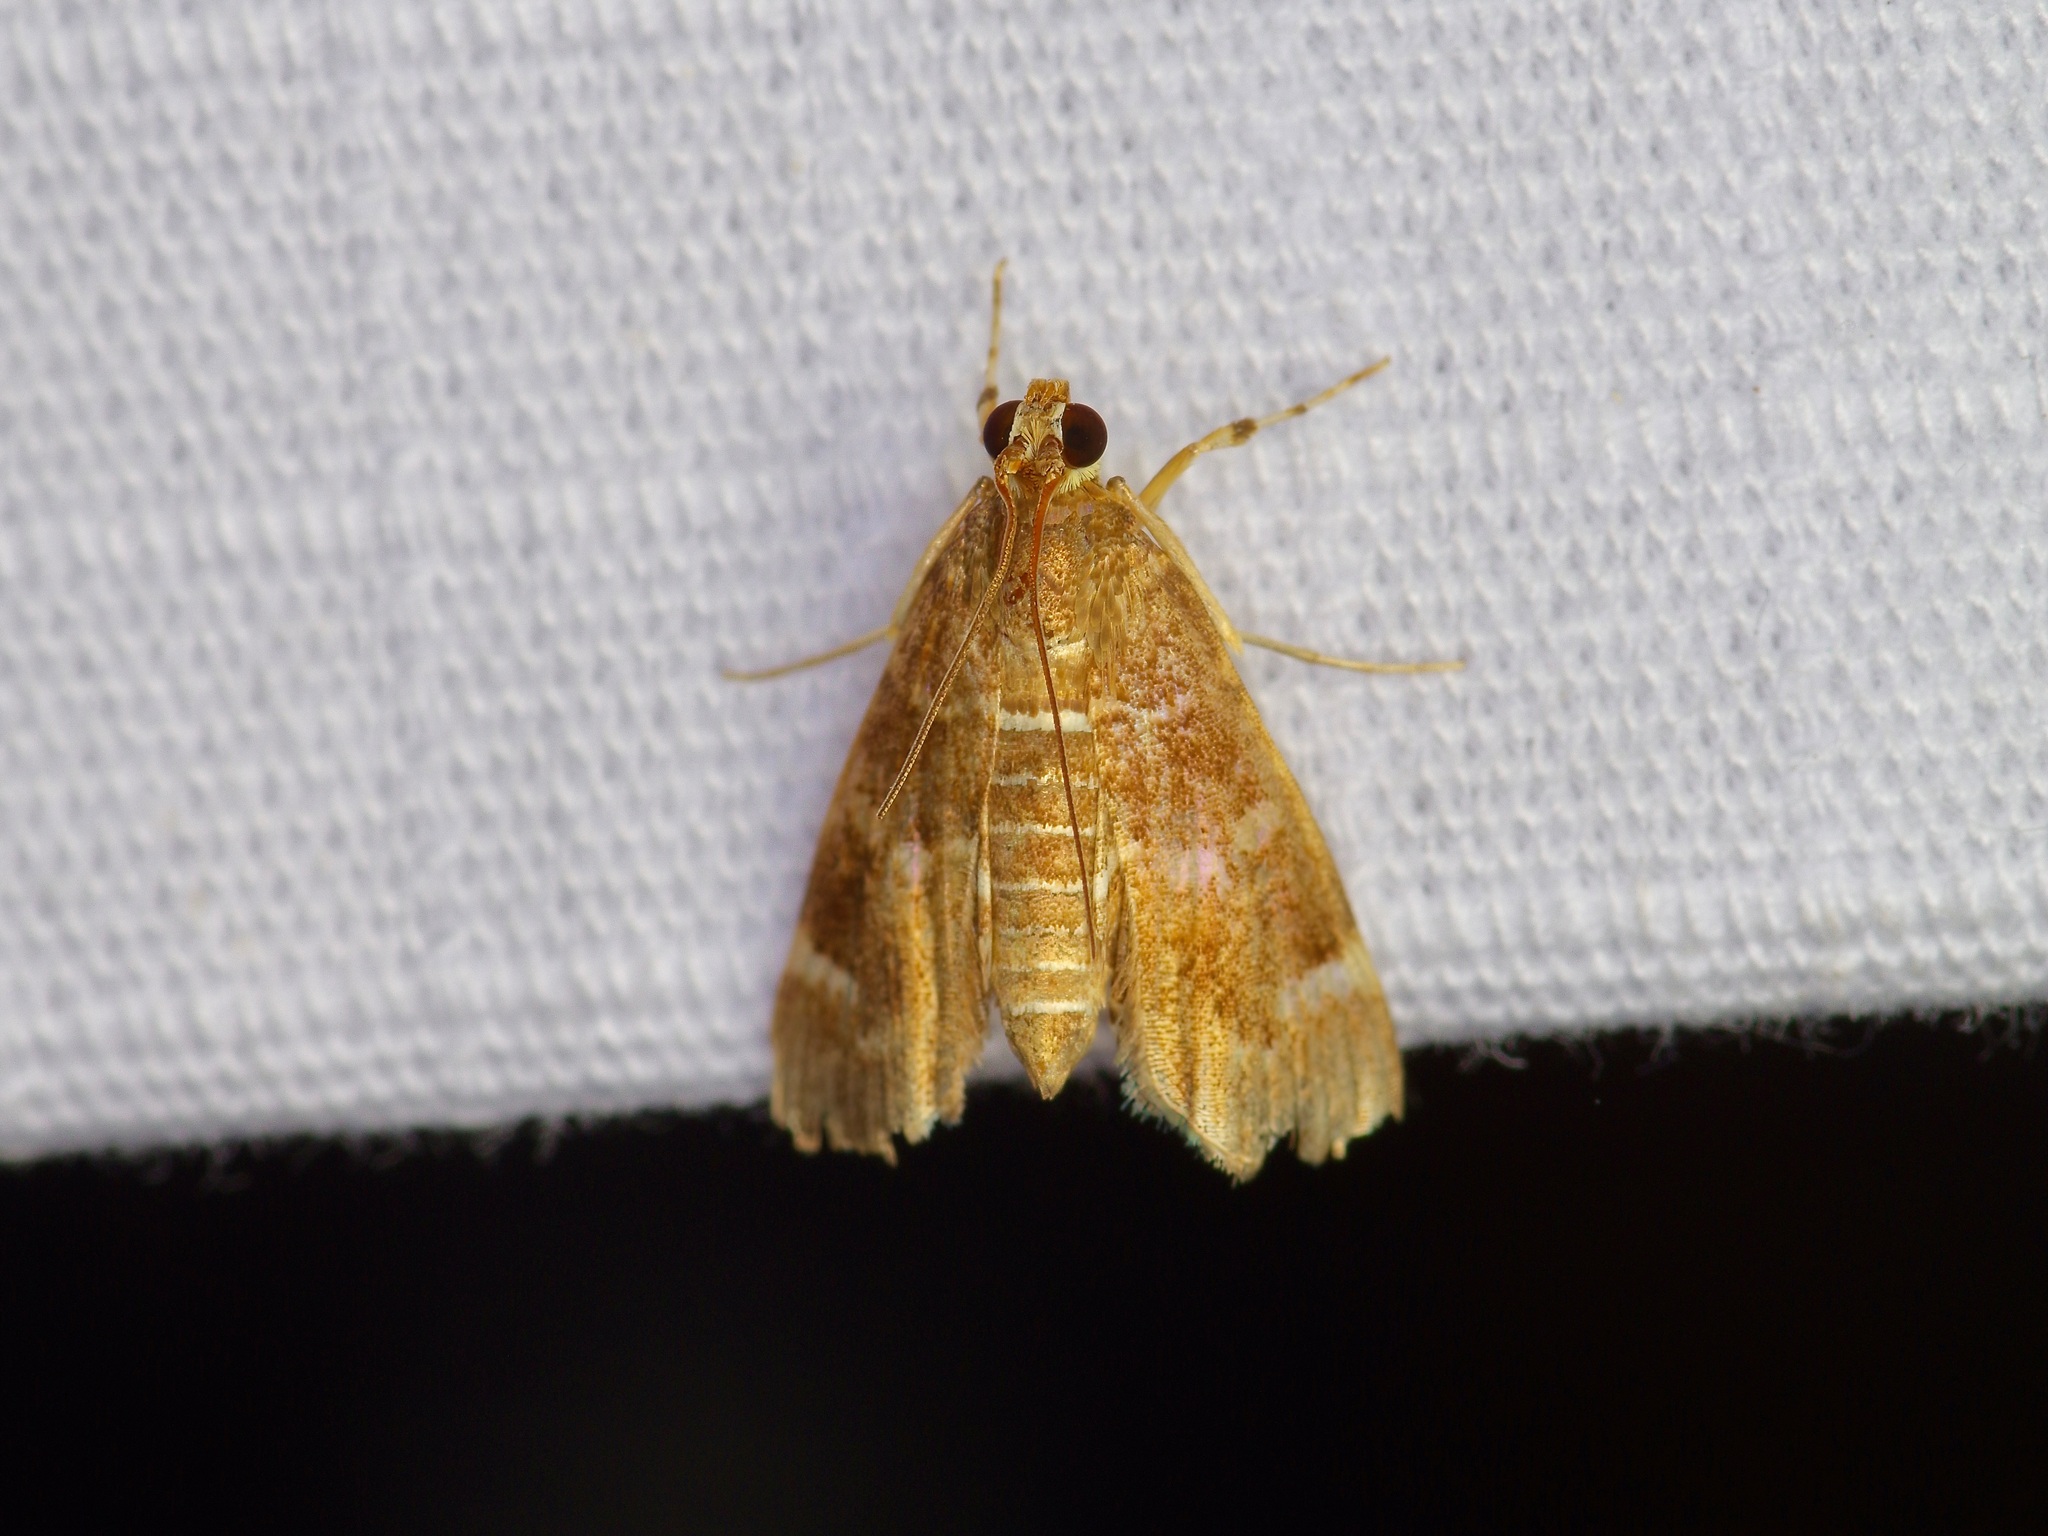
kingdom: Animalia
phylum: Arthropoda
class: Insecta
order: Lepidoptera
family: Crambidae
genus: Hymenia
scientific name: Hymenia perspectalis
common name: Spotted beet webworm
